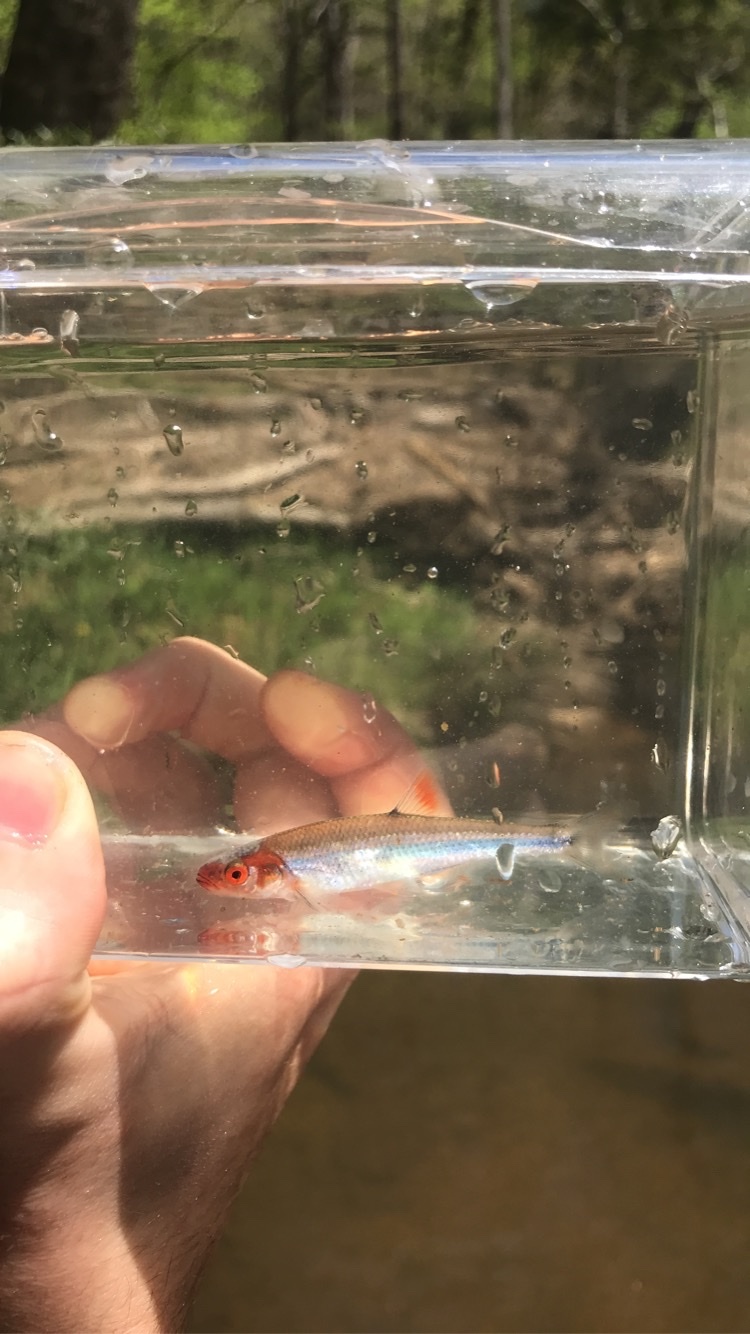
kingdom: Animalia
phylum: Chordata
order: Cypriniformes
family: Cyprinidae
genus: Lythrurus
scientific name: Lythrurus matutinus
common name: Pinewoods shiner
